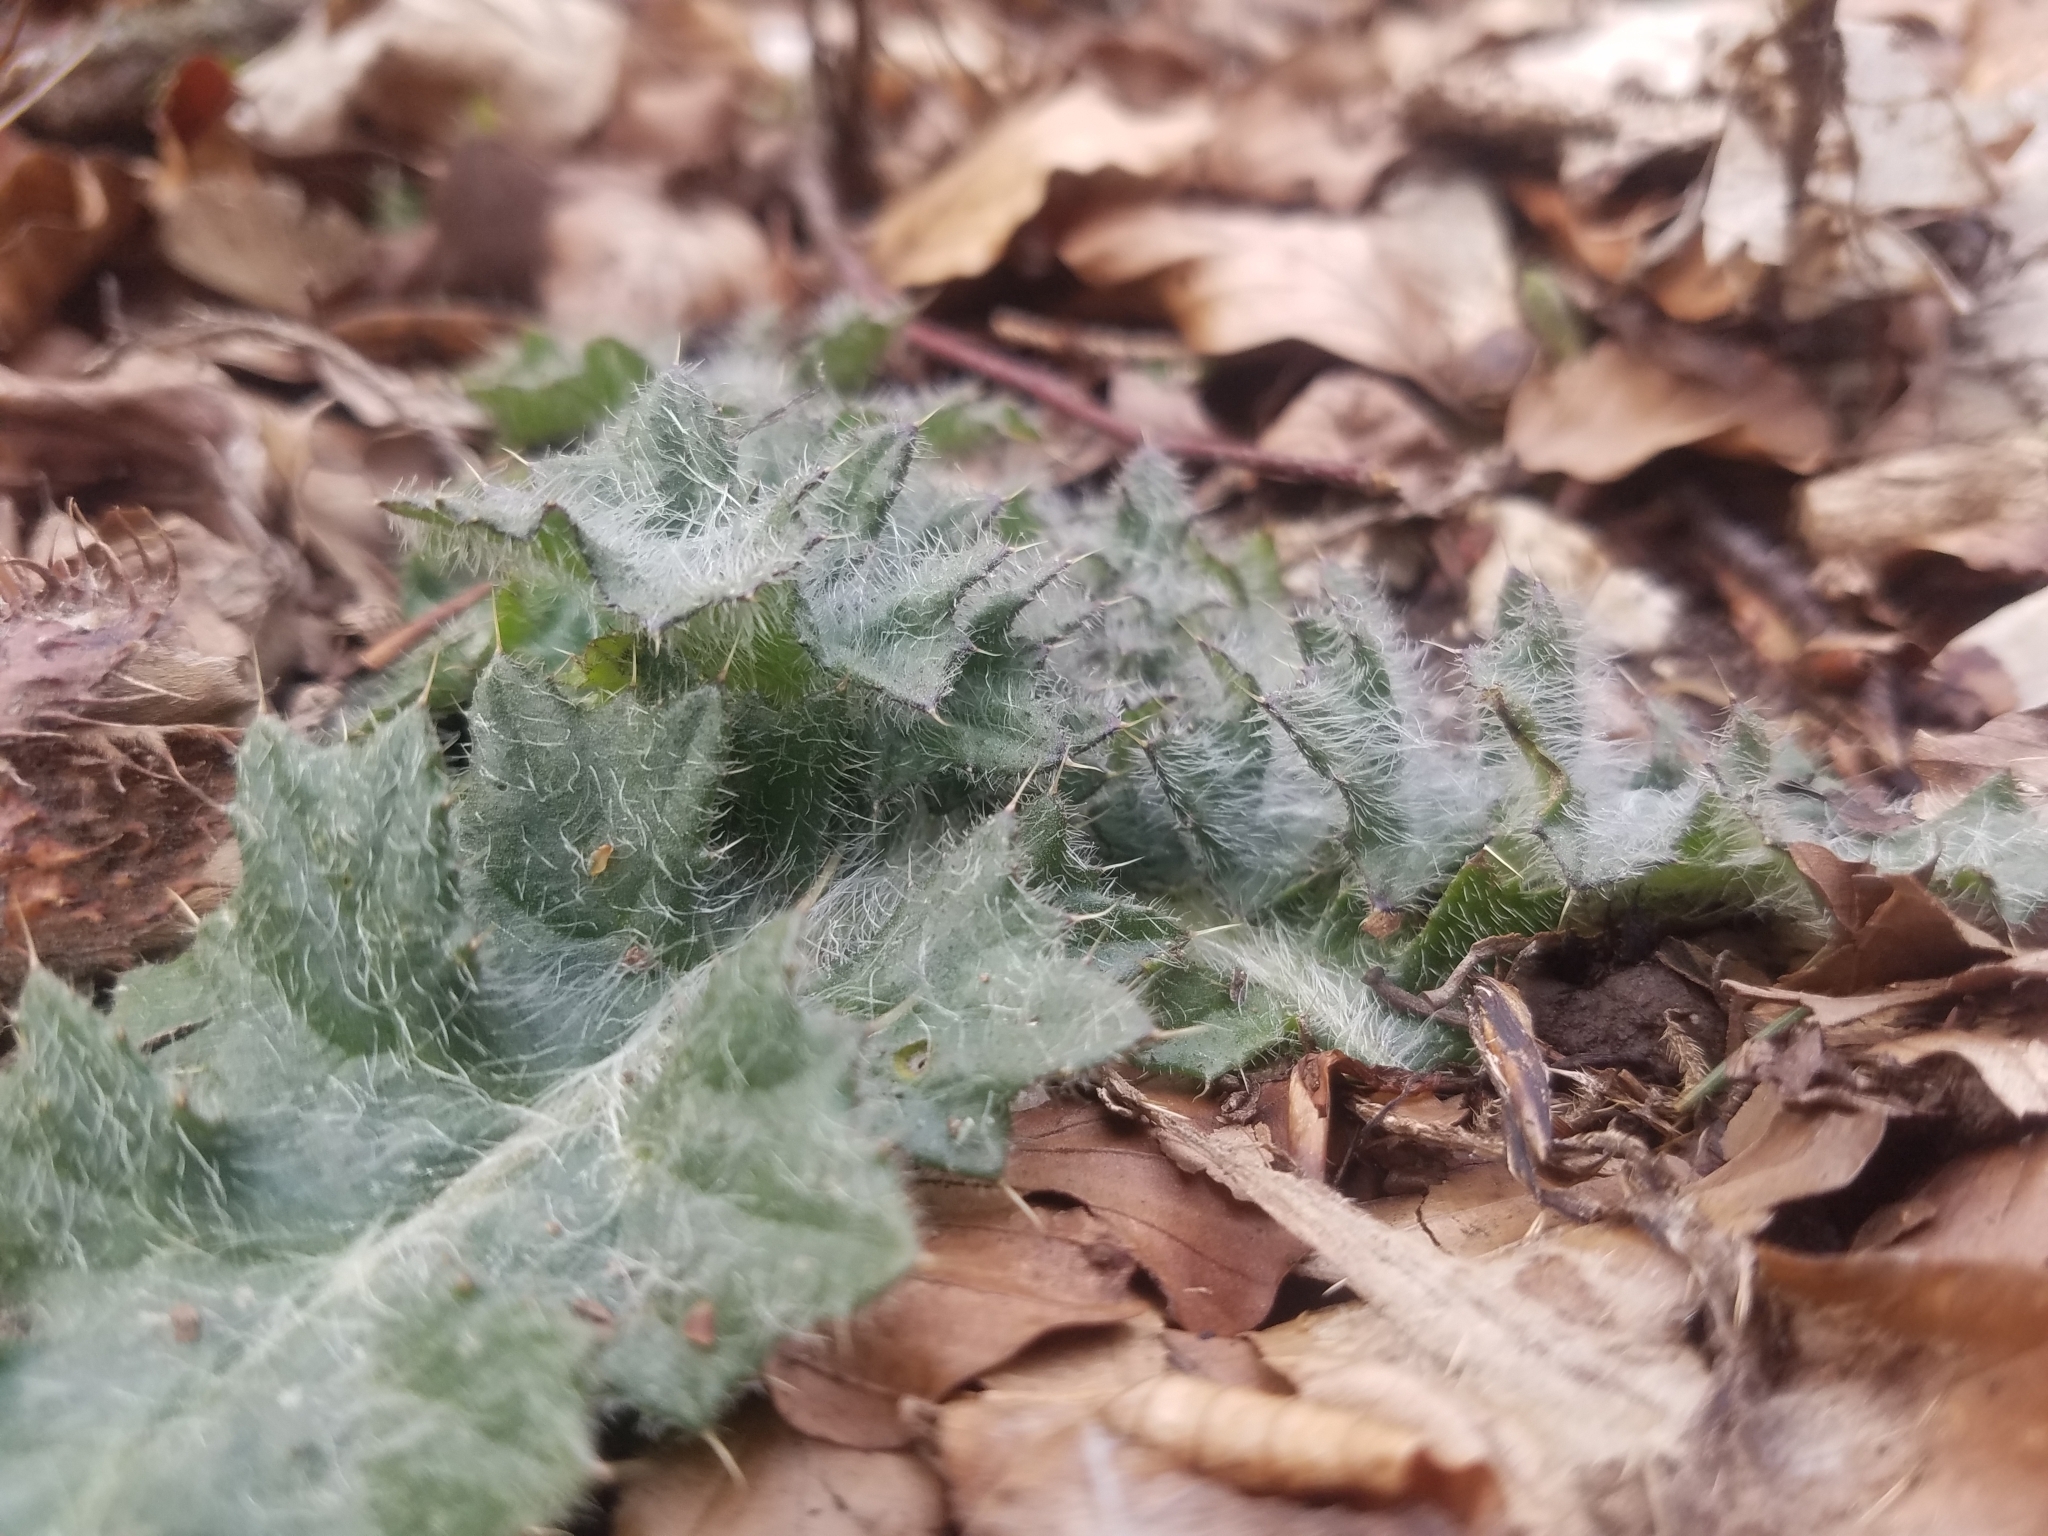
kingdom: Plantae
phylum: Tracheophyta
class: Magnoliopsida
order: Asterales
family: Asteraceae
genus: Cirsium
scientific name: Cirsium vulgare
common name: Bull thistle
